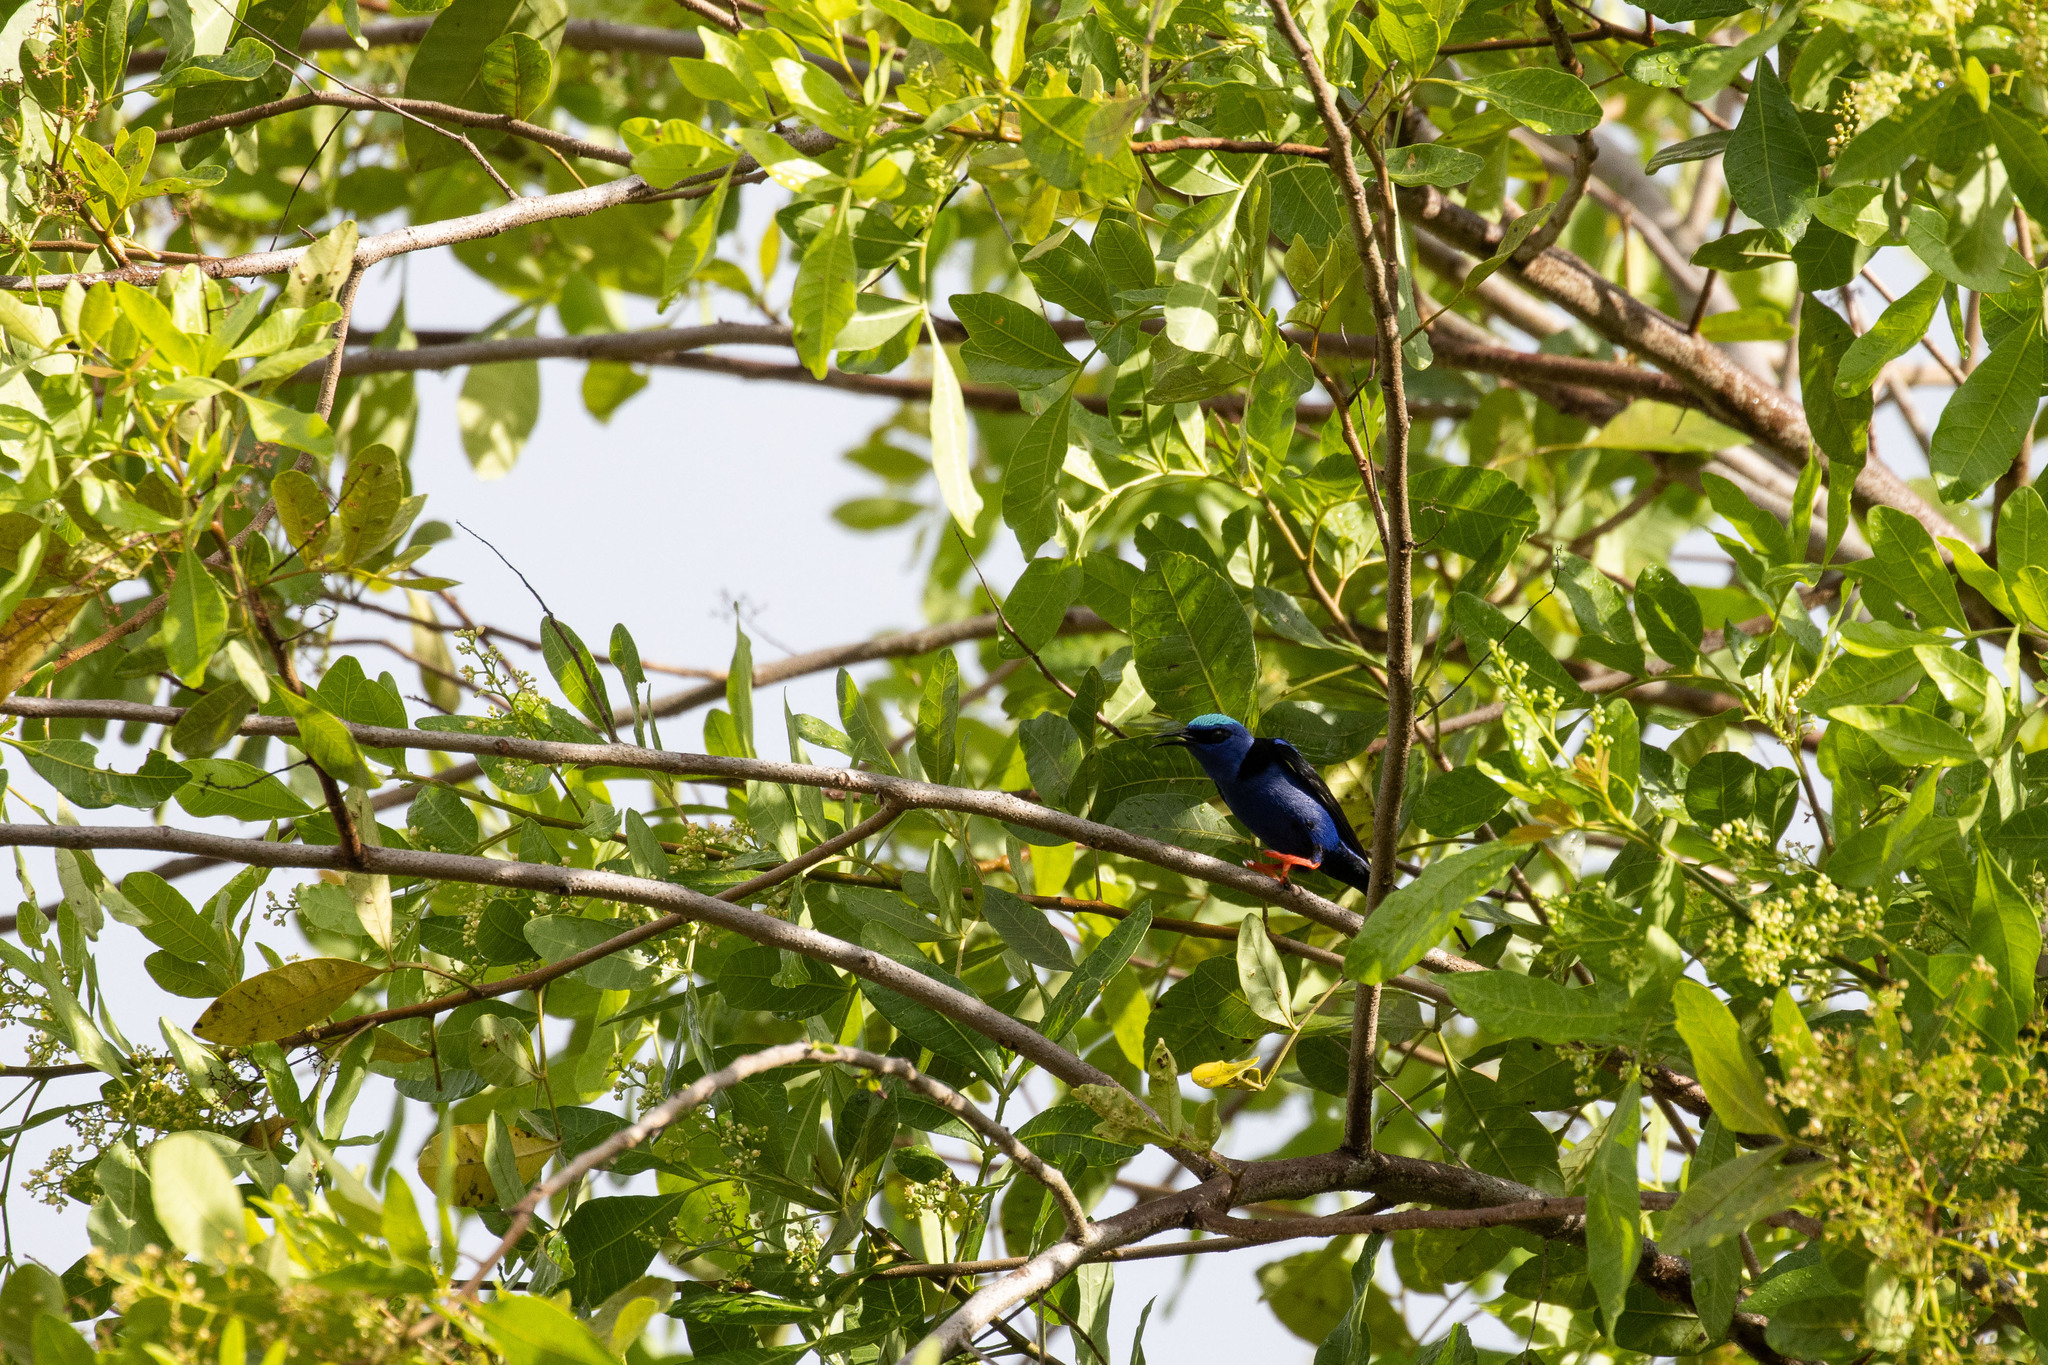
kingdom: Animalia
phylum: Chordata
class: Aves
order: Passeriformes
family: Thraupidae
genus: Cyanerpes
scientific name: Cyanerpes cyaneus
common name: Red-legged honeycreeper
